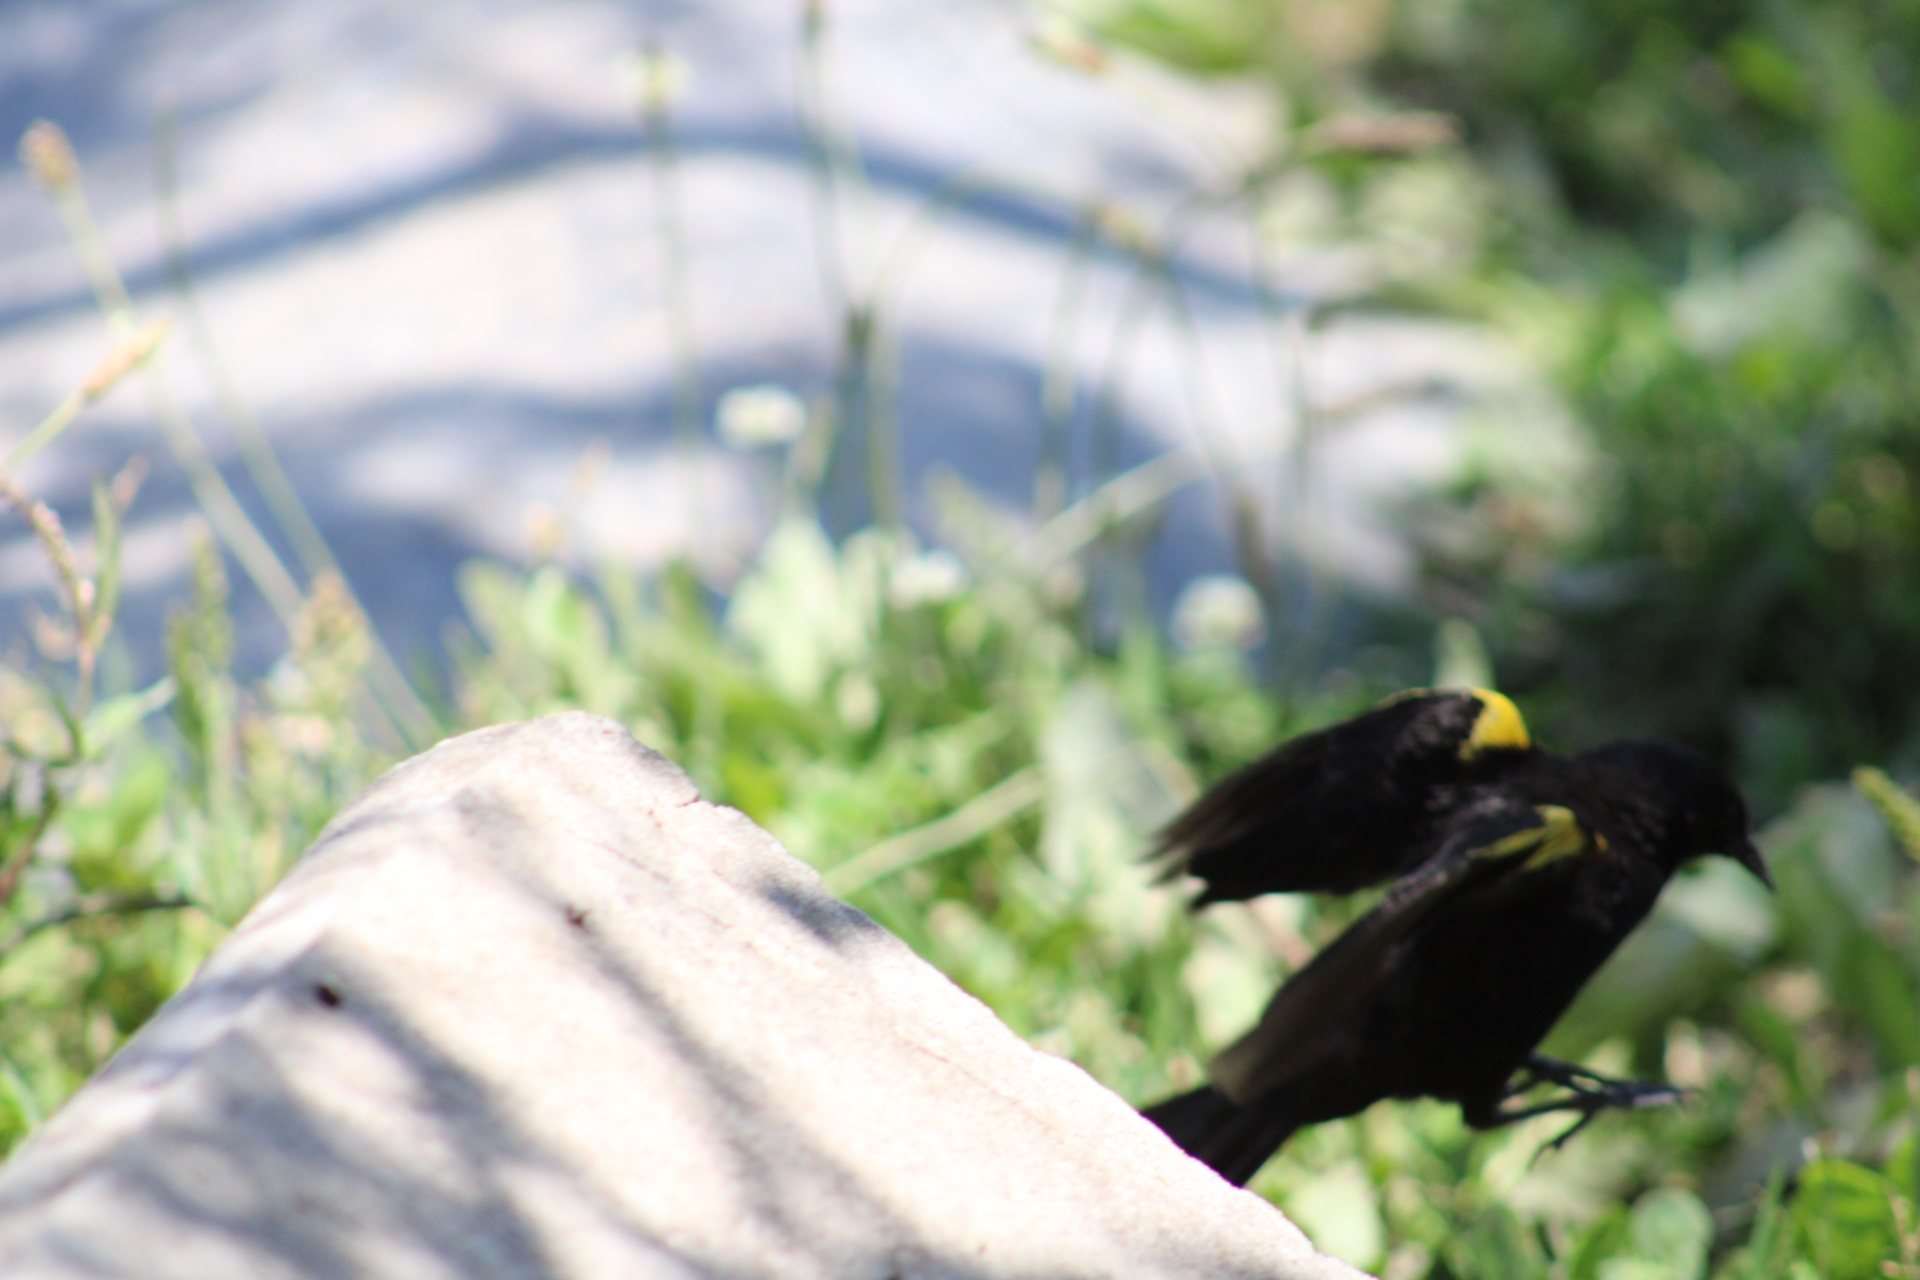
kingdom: Animalia
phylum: Chordata
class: Aves
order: Passeriformes
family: Icteridae
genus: Agelasticus
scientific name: Agelasticus thilius
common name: Yellow-winged blackbird
